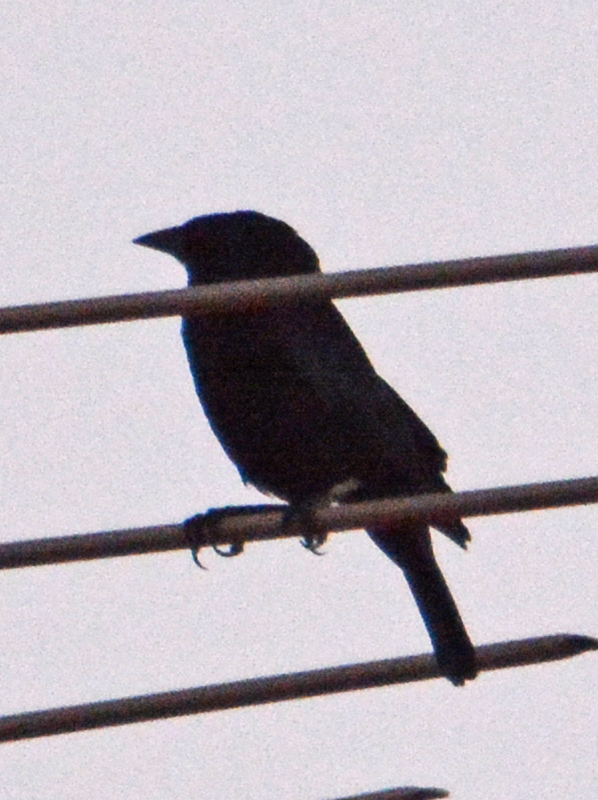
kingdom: Animalia
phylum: Chordata
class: Aves
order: Passeriformes
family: Icteridae
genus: Molothrus
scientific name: Molothrus aeneus
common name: Bronzed cowbird
